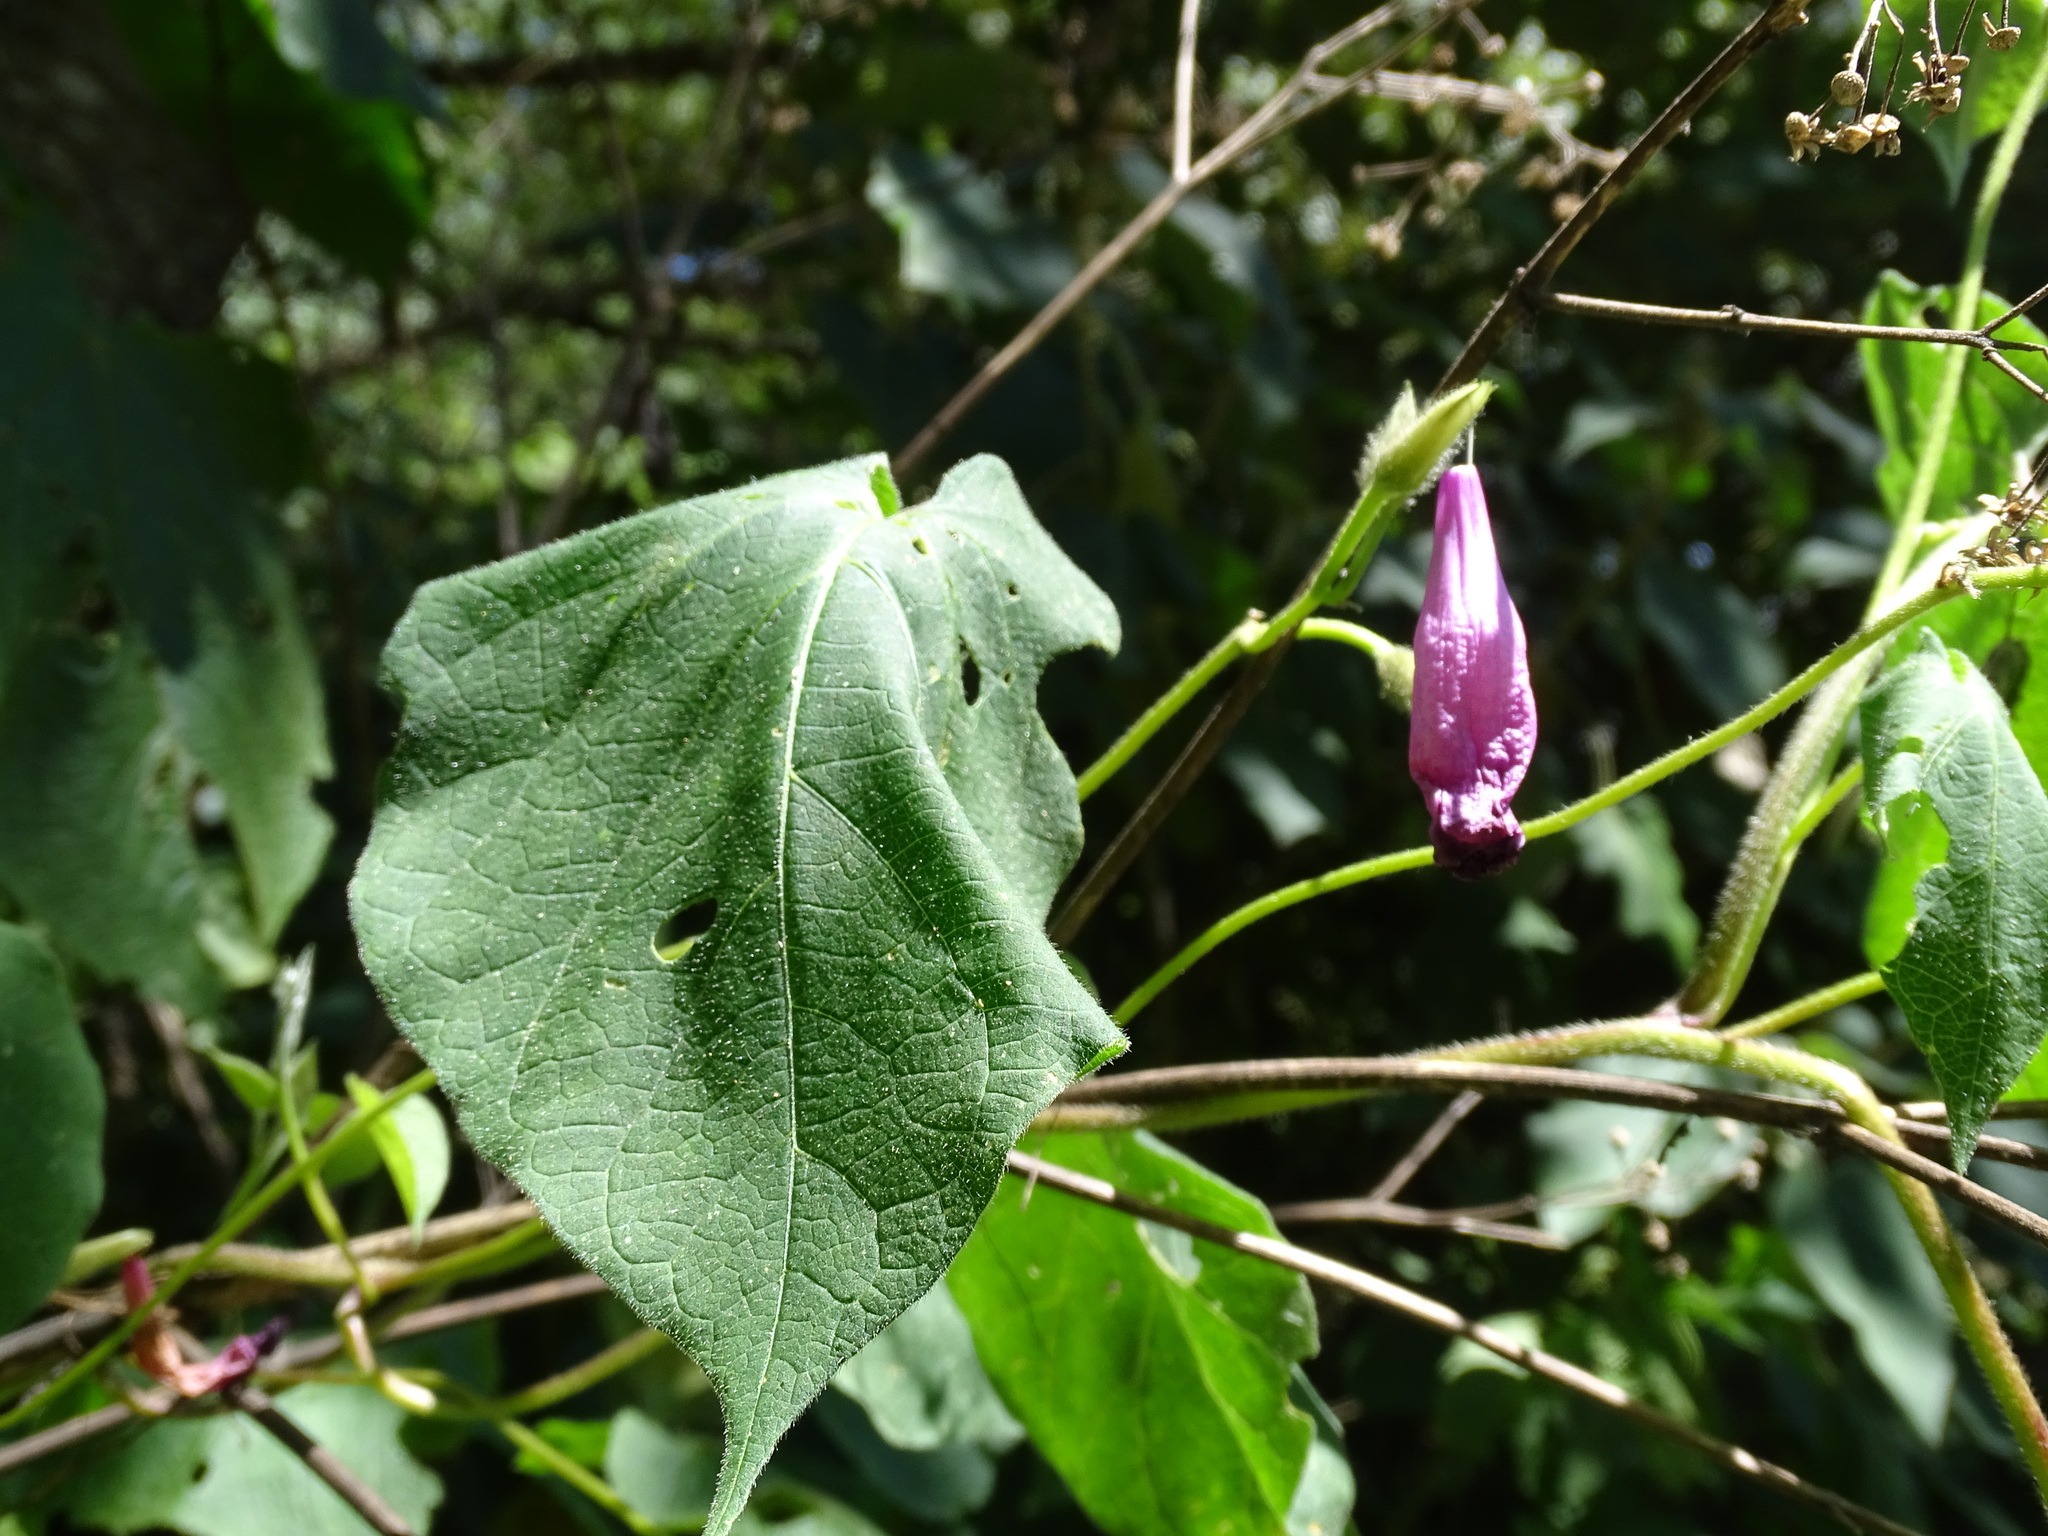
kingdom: Plantae
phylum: Tracheophyta
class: Magnoliopsida
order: Solanales
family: Convolvulaceae
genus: Ipomoea
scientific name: Ipomoea orizabensis
